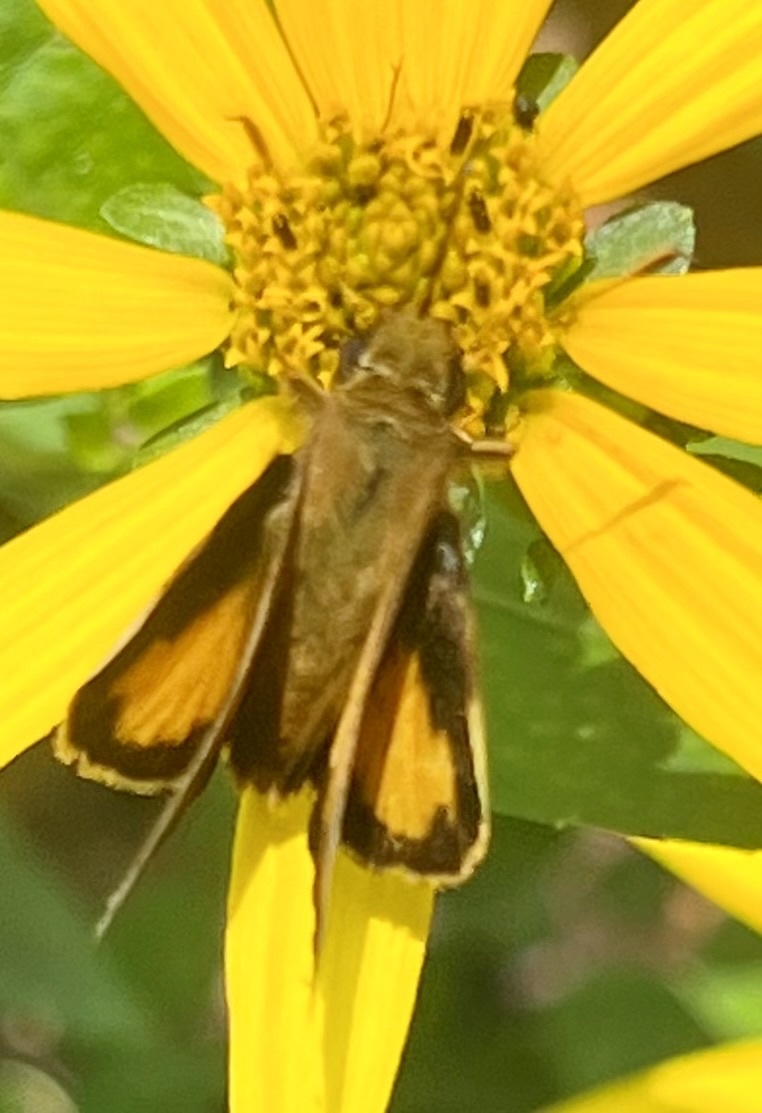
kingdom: Animalia
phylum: Arthropoda
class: Insecta
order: Lepidoptera
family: Hesperiidae
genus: Lon
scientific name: Lon zabulon
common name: Zabulon skipper
